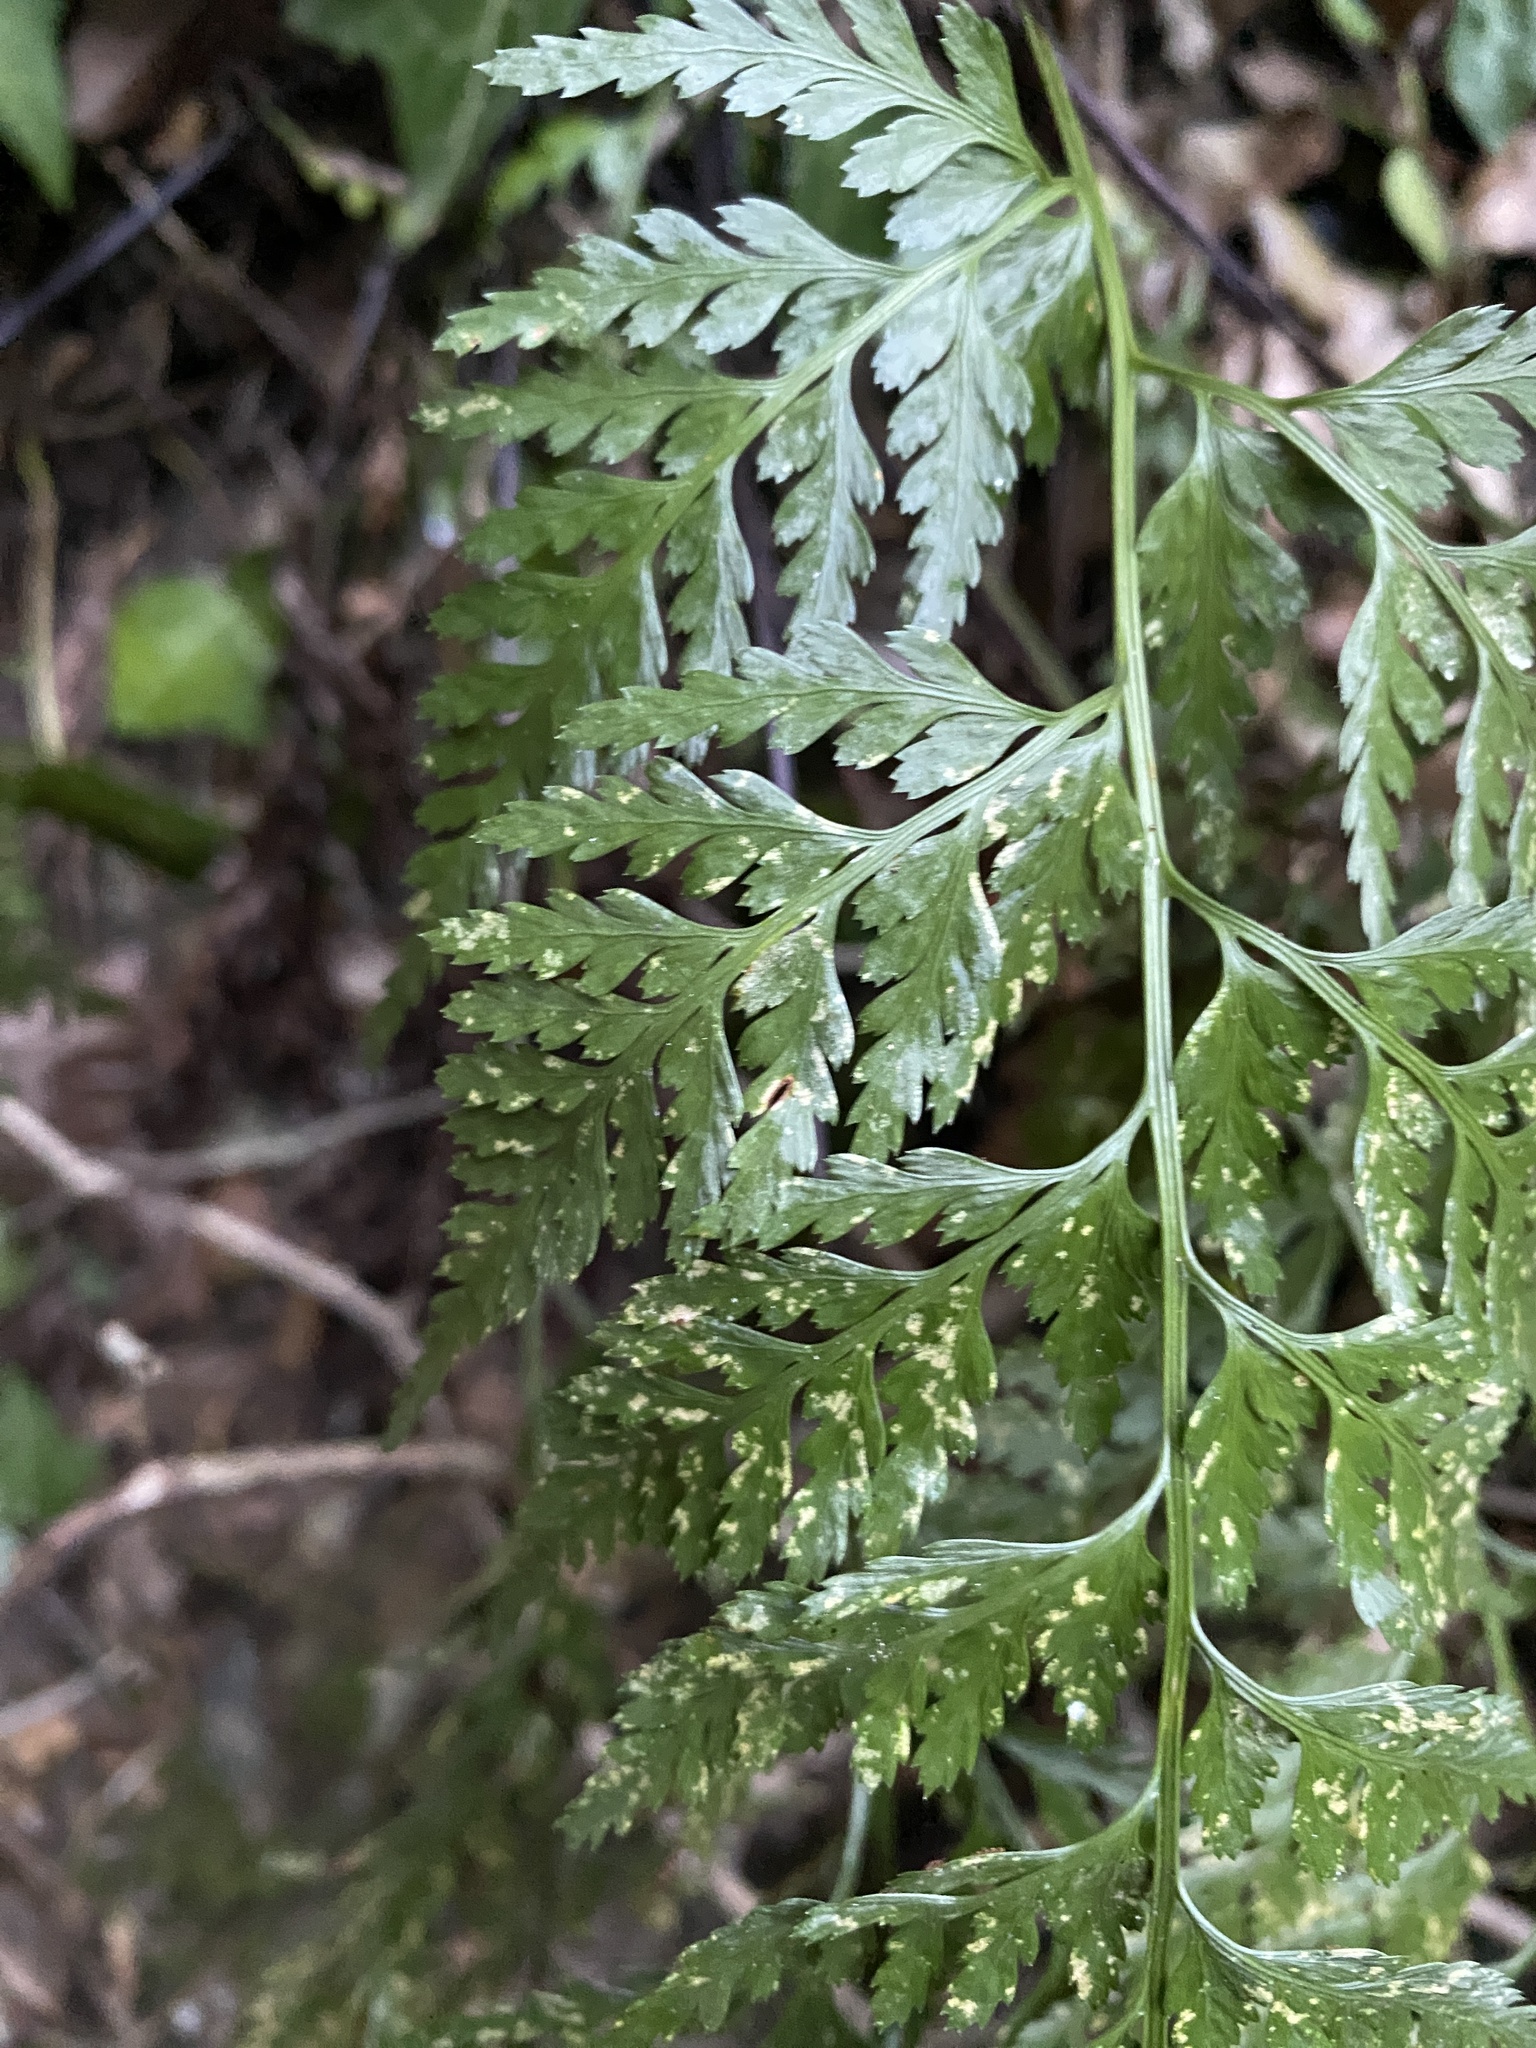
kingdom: Plantae
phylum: Tracheophyta
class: Polypodiopsida
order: Polypodiales
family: Aspleniaceae
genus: Asplenium
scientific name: Asplenium onopteris
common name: Irish spleenwort
